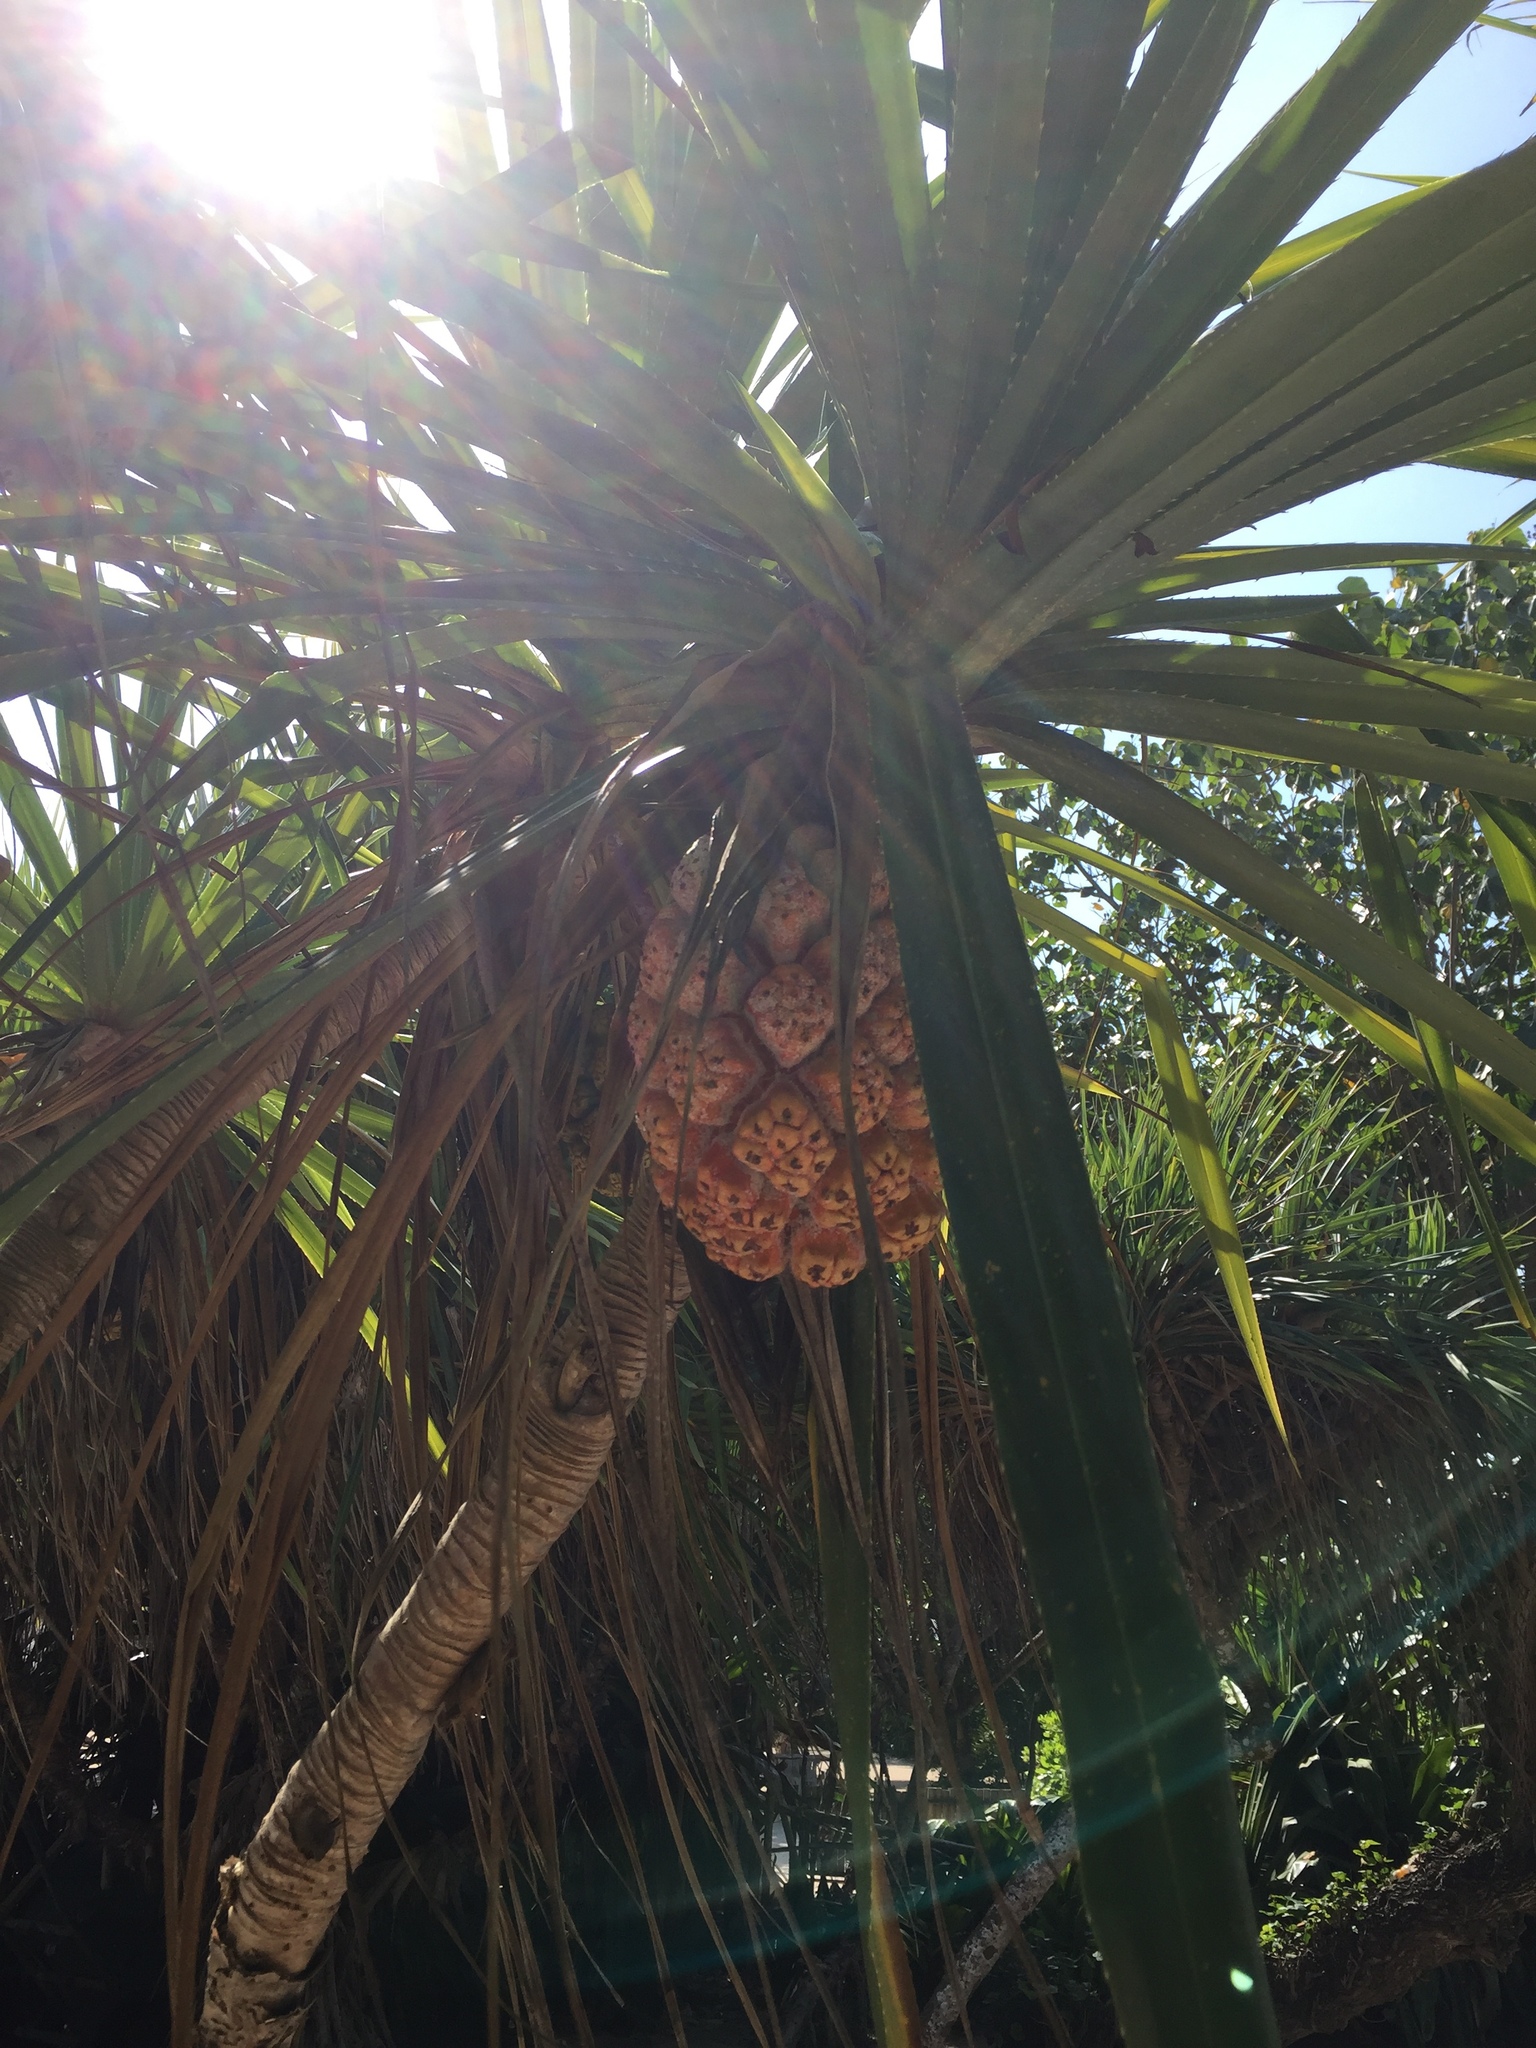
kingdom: Plantae
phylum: Tracheophyta
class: Liliopsida
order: Pandanales
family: Pandanaceae
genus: Pandanus
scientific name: Pandanus tectorius
